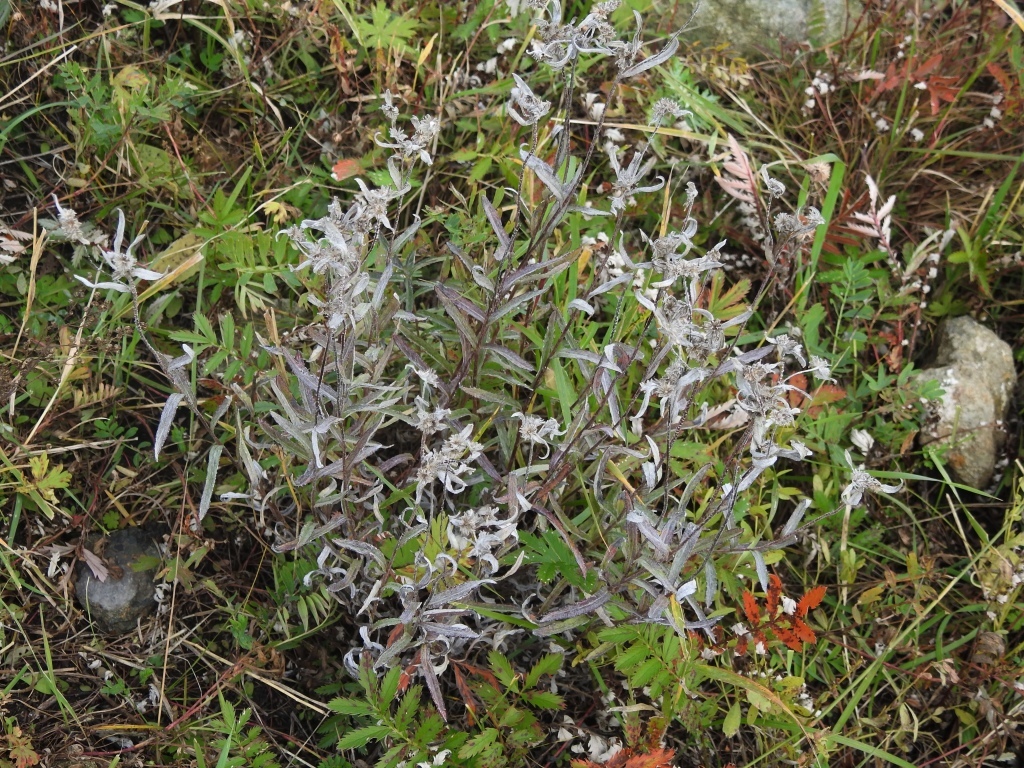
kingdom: Plantae
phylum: Tracheophyta
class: Magnoliopsida
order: Asterales
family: Asteraceae
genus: Leontopodium
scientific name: Leontopodium leontopodioides
